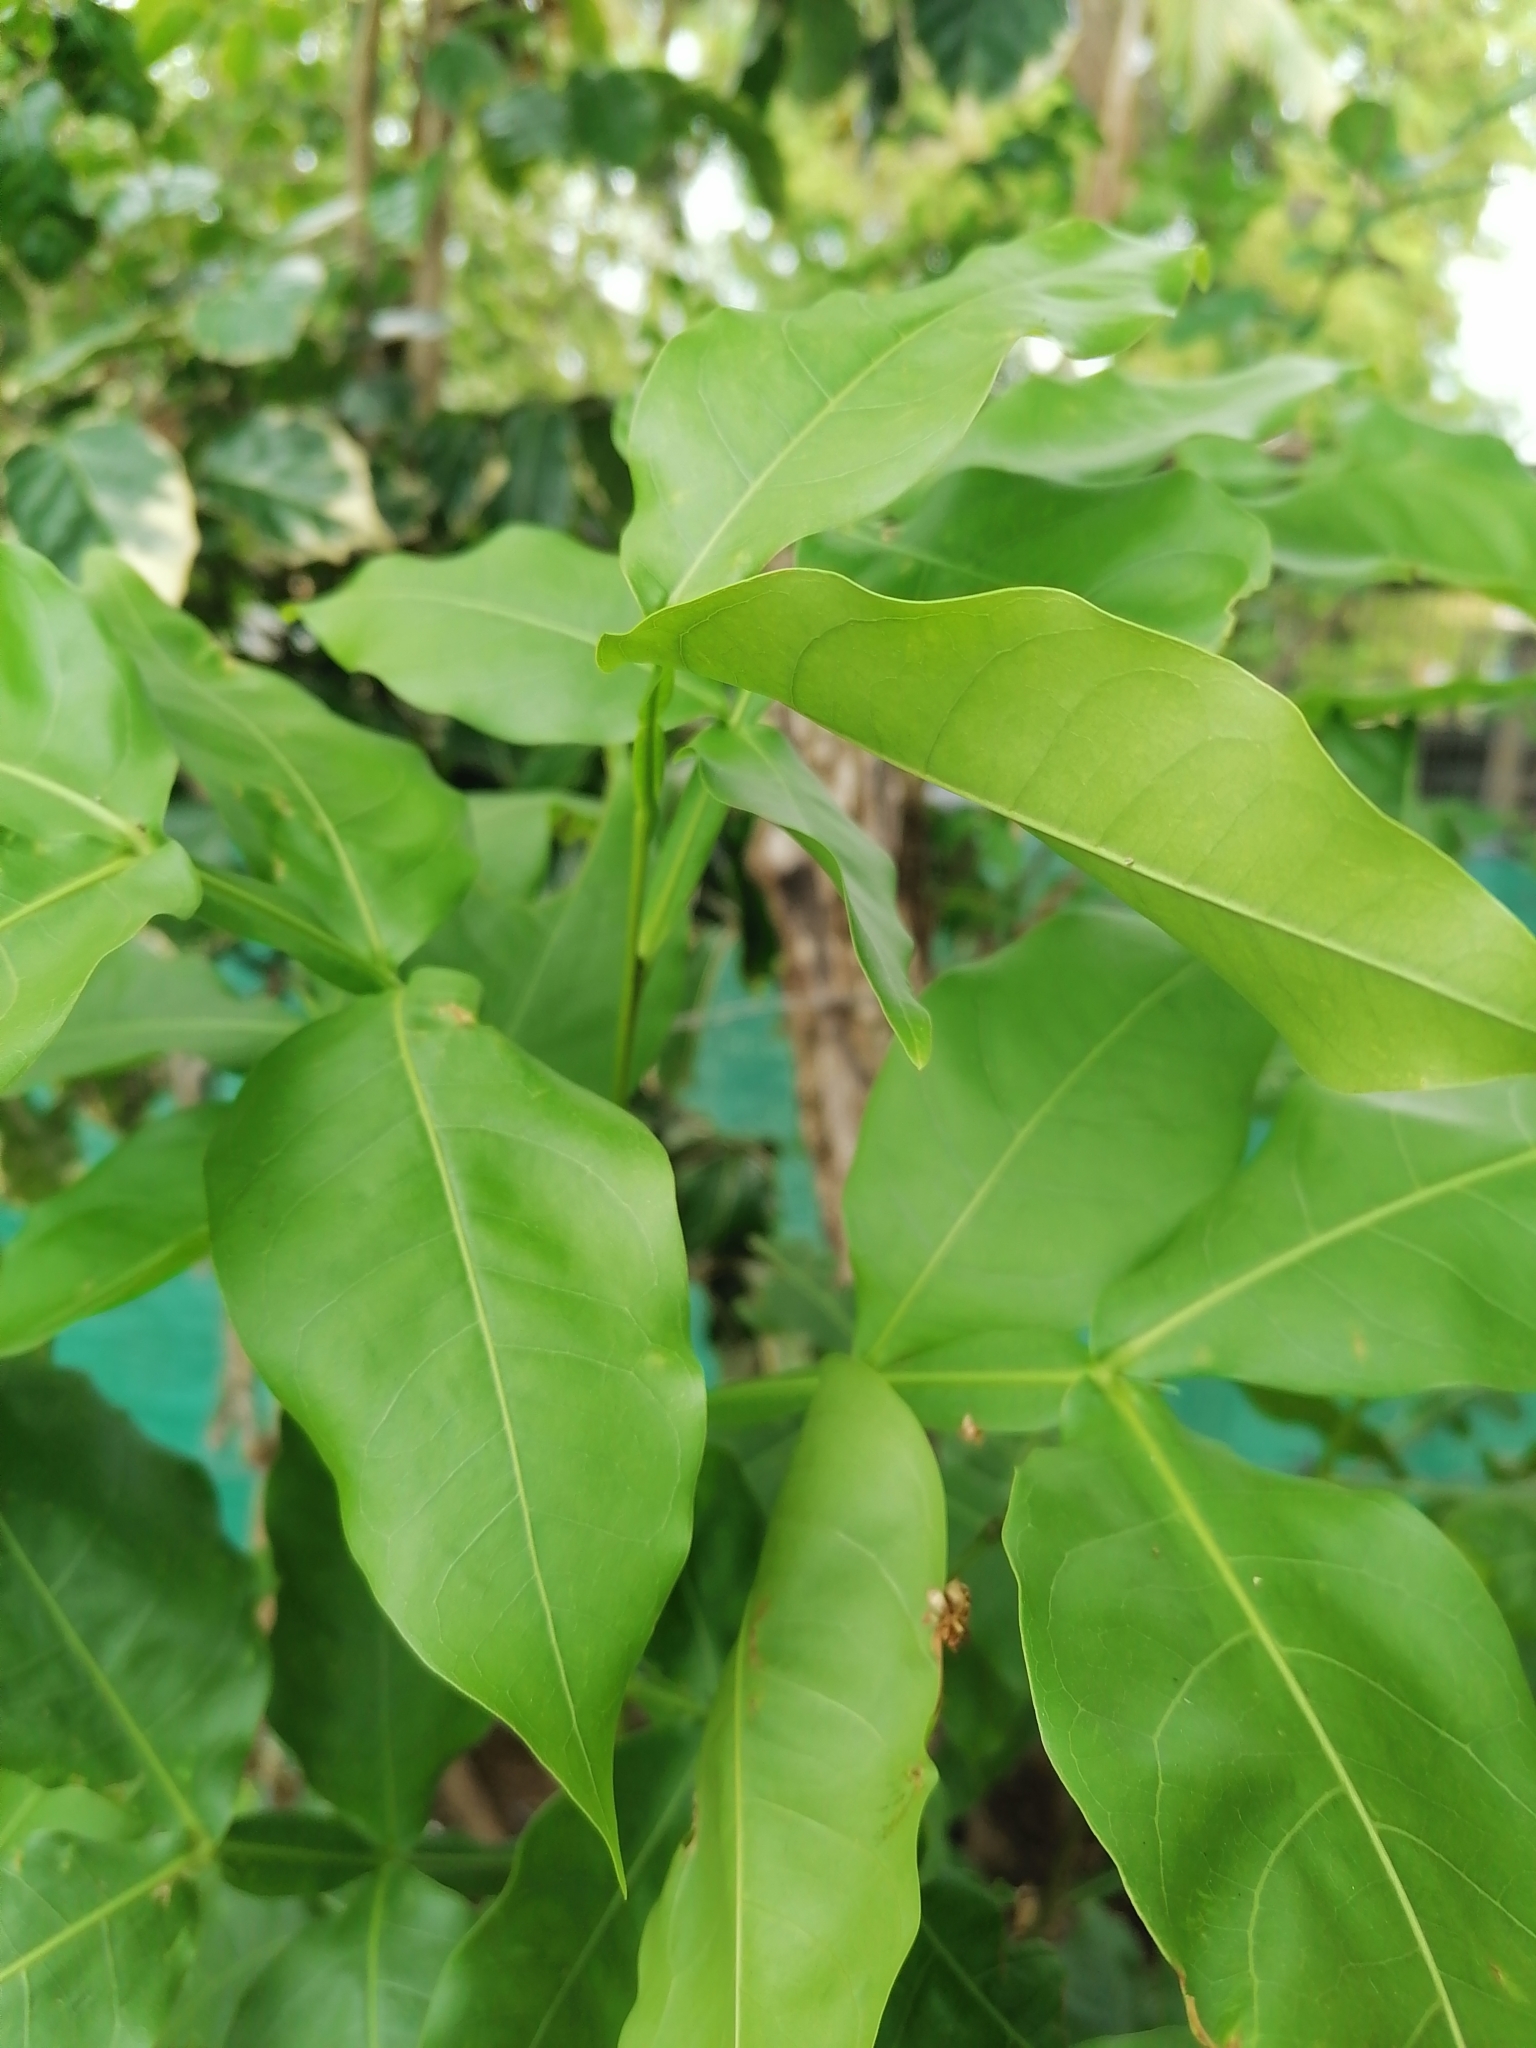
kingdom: Plantae
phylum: Tracheophyta
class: Magnoliopsida
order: Sapindales
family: Sapindaceae
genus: Melicoccus
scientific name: Melicoccus bijugatus
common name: Spanish lime
